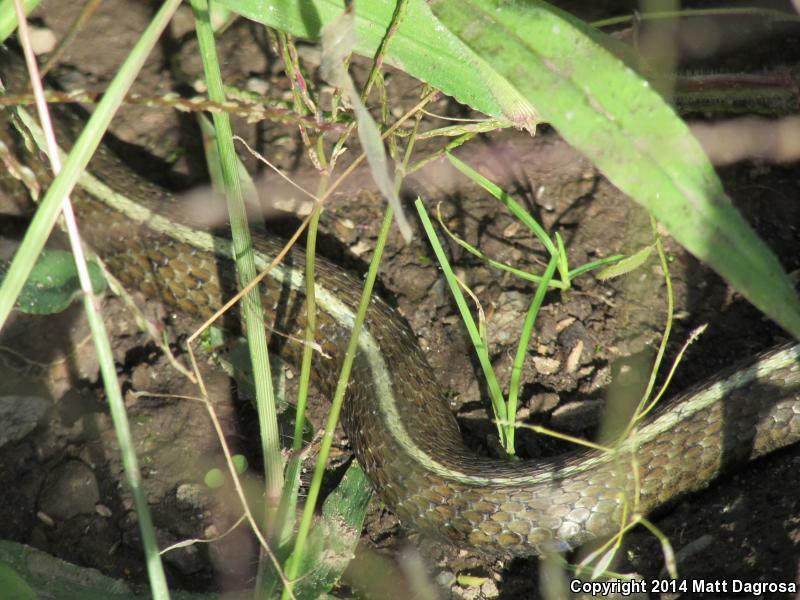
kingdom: Animalia
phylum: Chordata
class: Squamata
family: Colubridae
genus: Thamnophis
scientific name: Thamnophis ordinoides
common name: Northwestern garter snake
